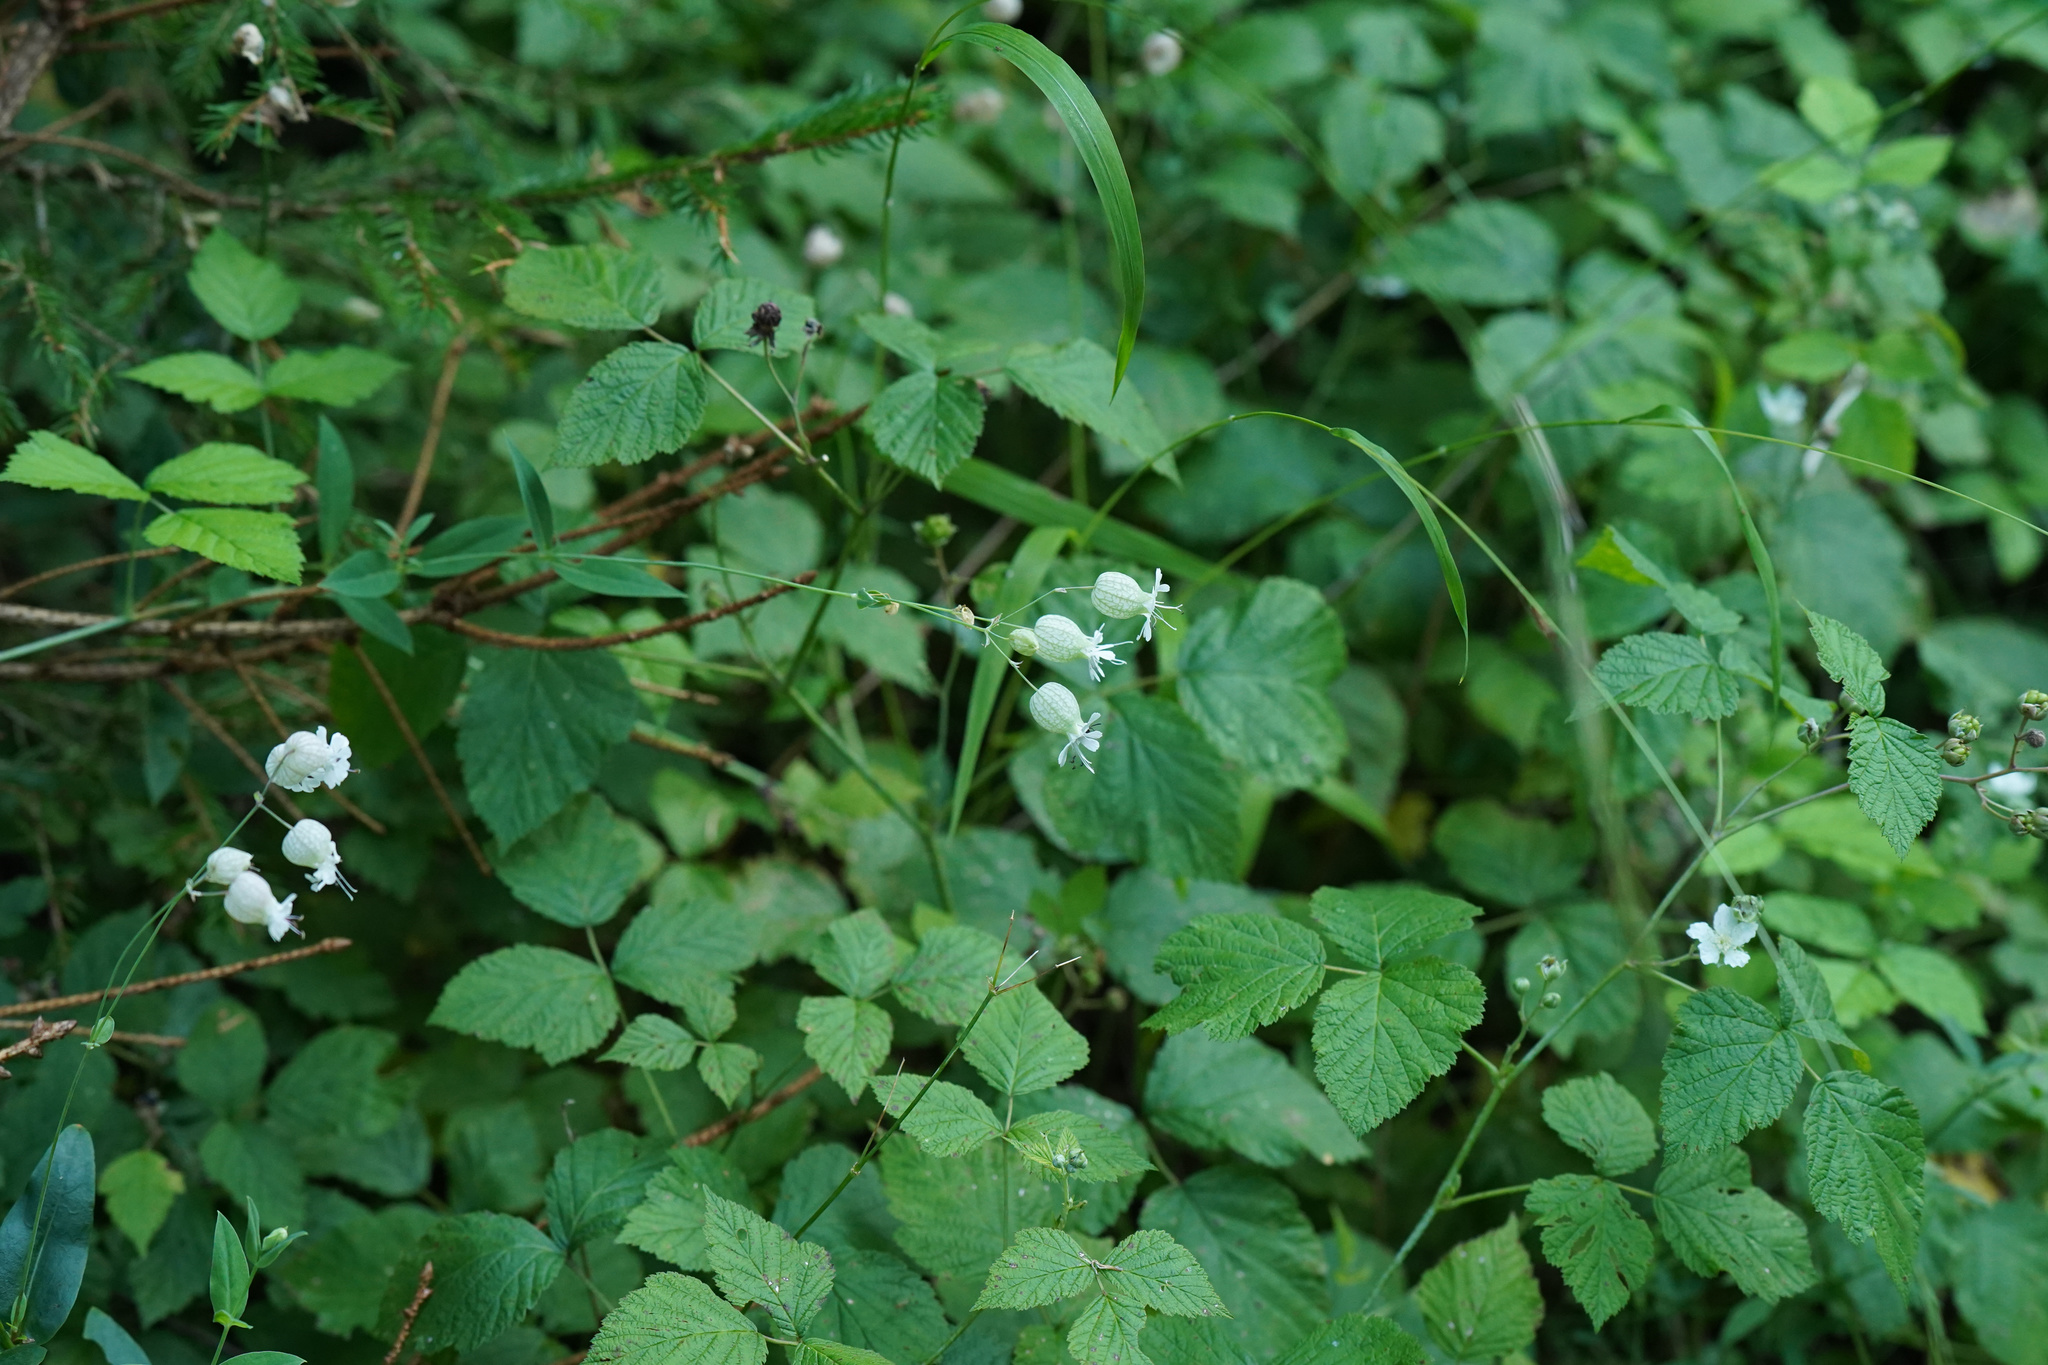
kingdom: Plantae
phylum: Tracheophyta
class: Magnoliopsida
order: Caryophyllales
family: Caryophyllaceae
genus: Silene
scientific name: Silene vulgaris
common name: Bladder campion
